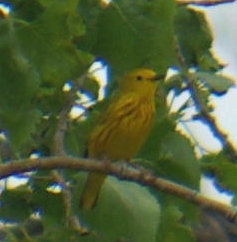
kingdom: Animalia
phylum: Chordata
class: Aves
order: Passeriformes
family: Parulidae
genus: Setophaga
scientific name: Setophaga petechia
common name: Yellow warbler
